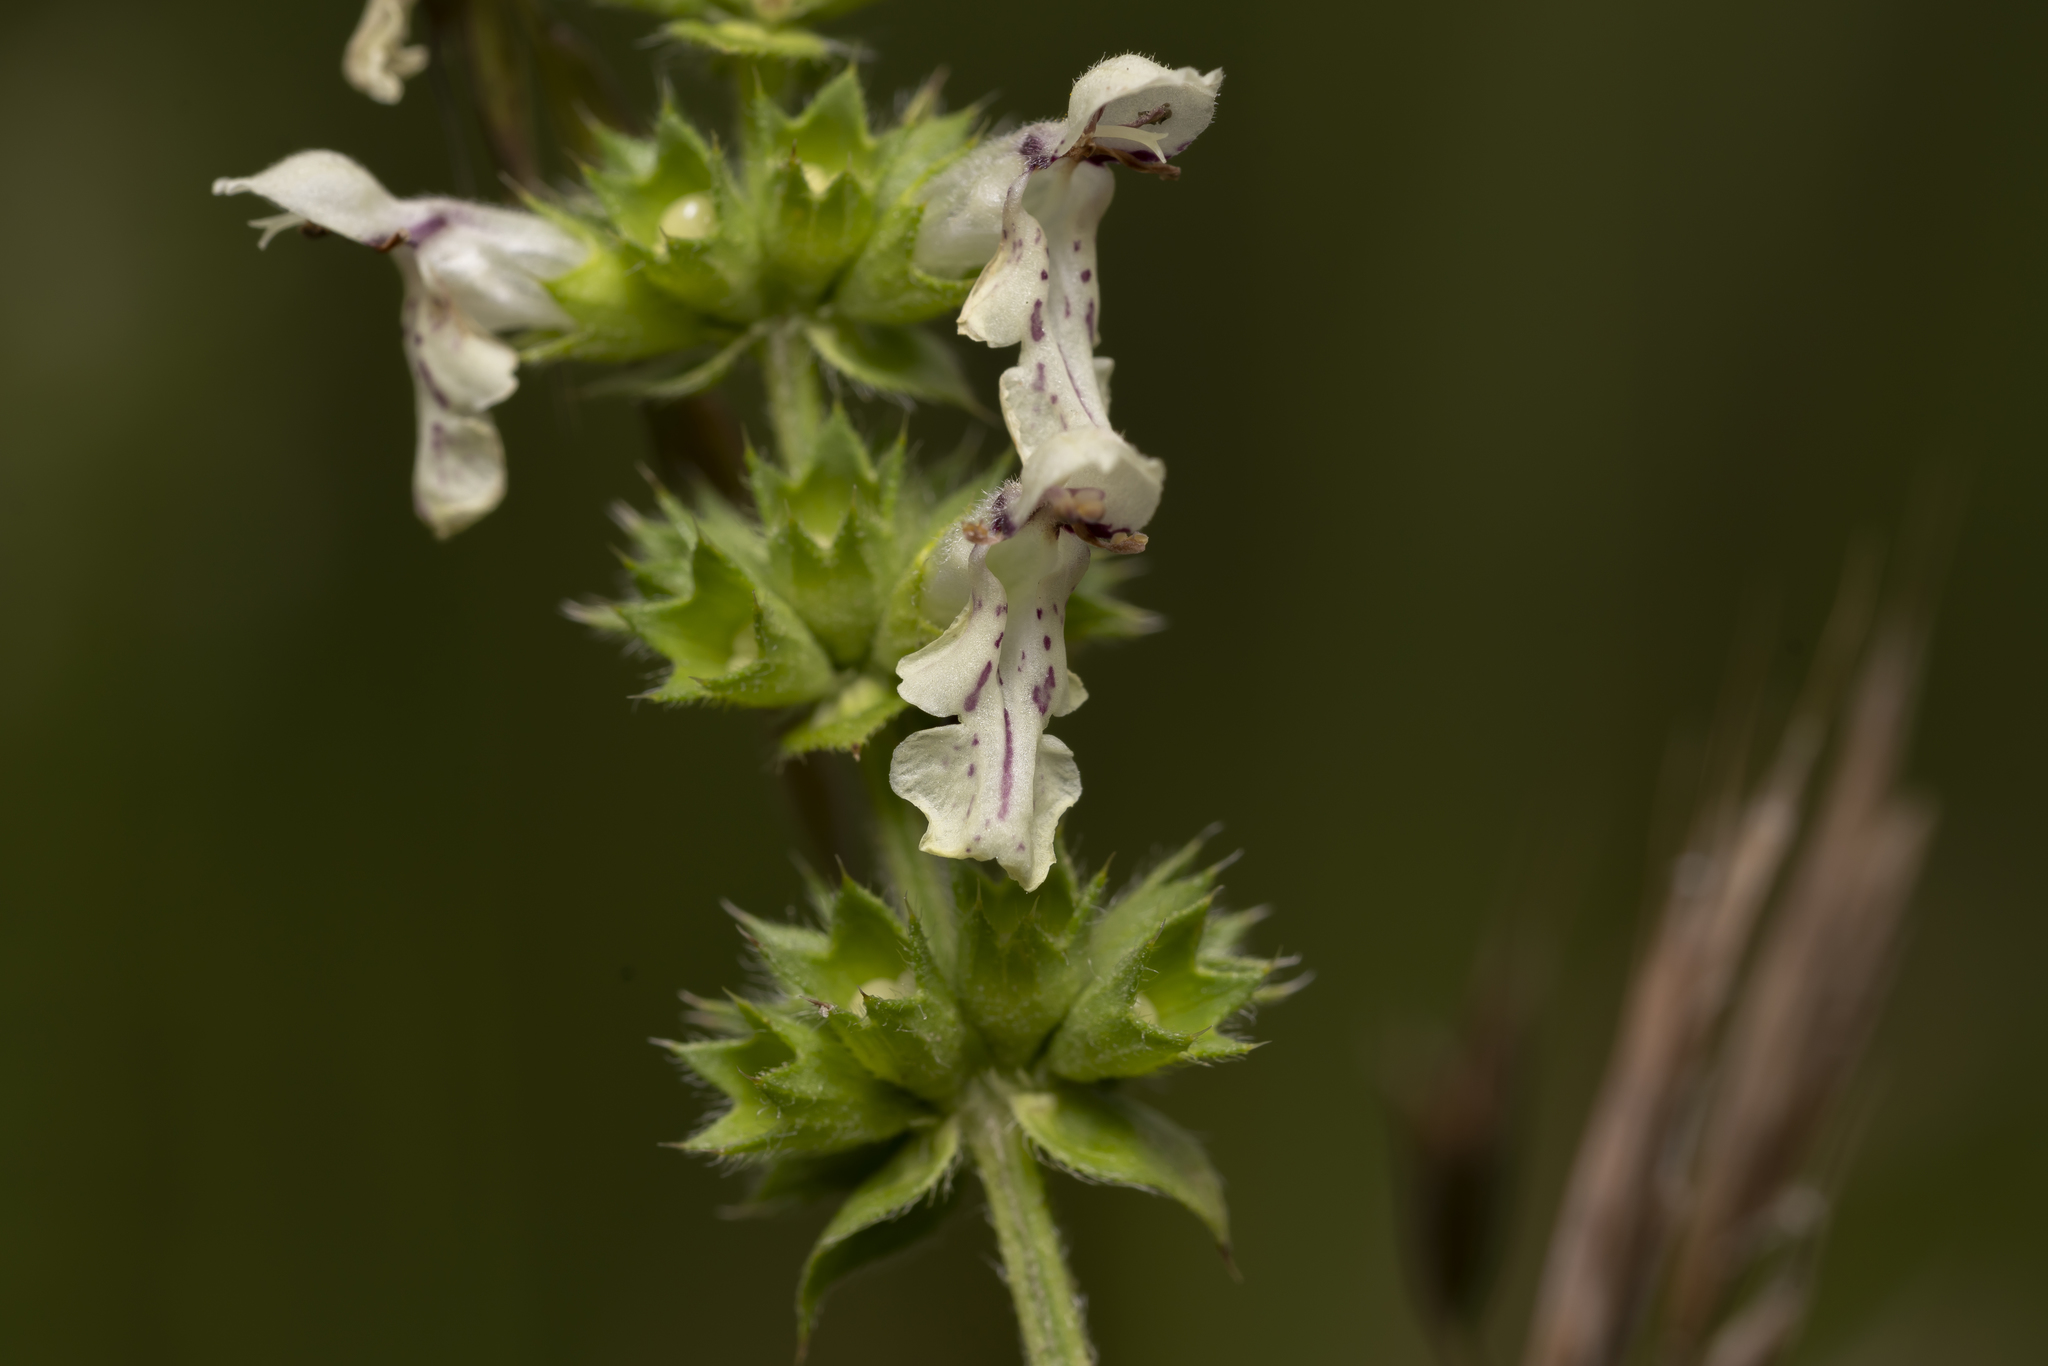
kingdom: Plantae
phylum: Tracheophyta
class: Magnoliopsida
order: Lamiales
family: Lamiaceae
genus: Stachys
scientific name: Stachys recta
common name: Perennial yellow-woundwort
